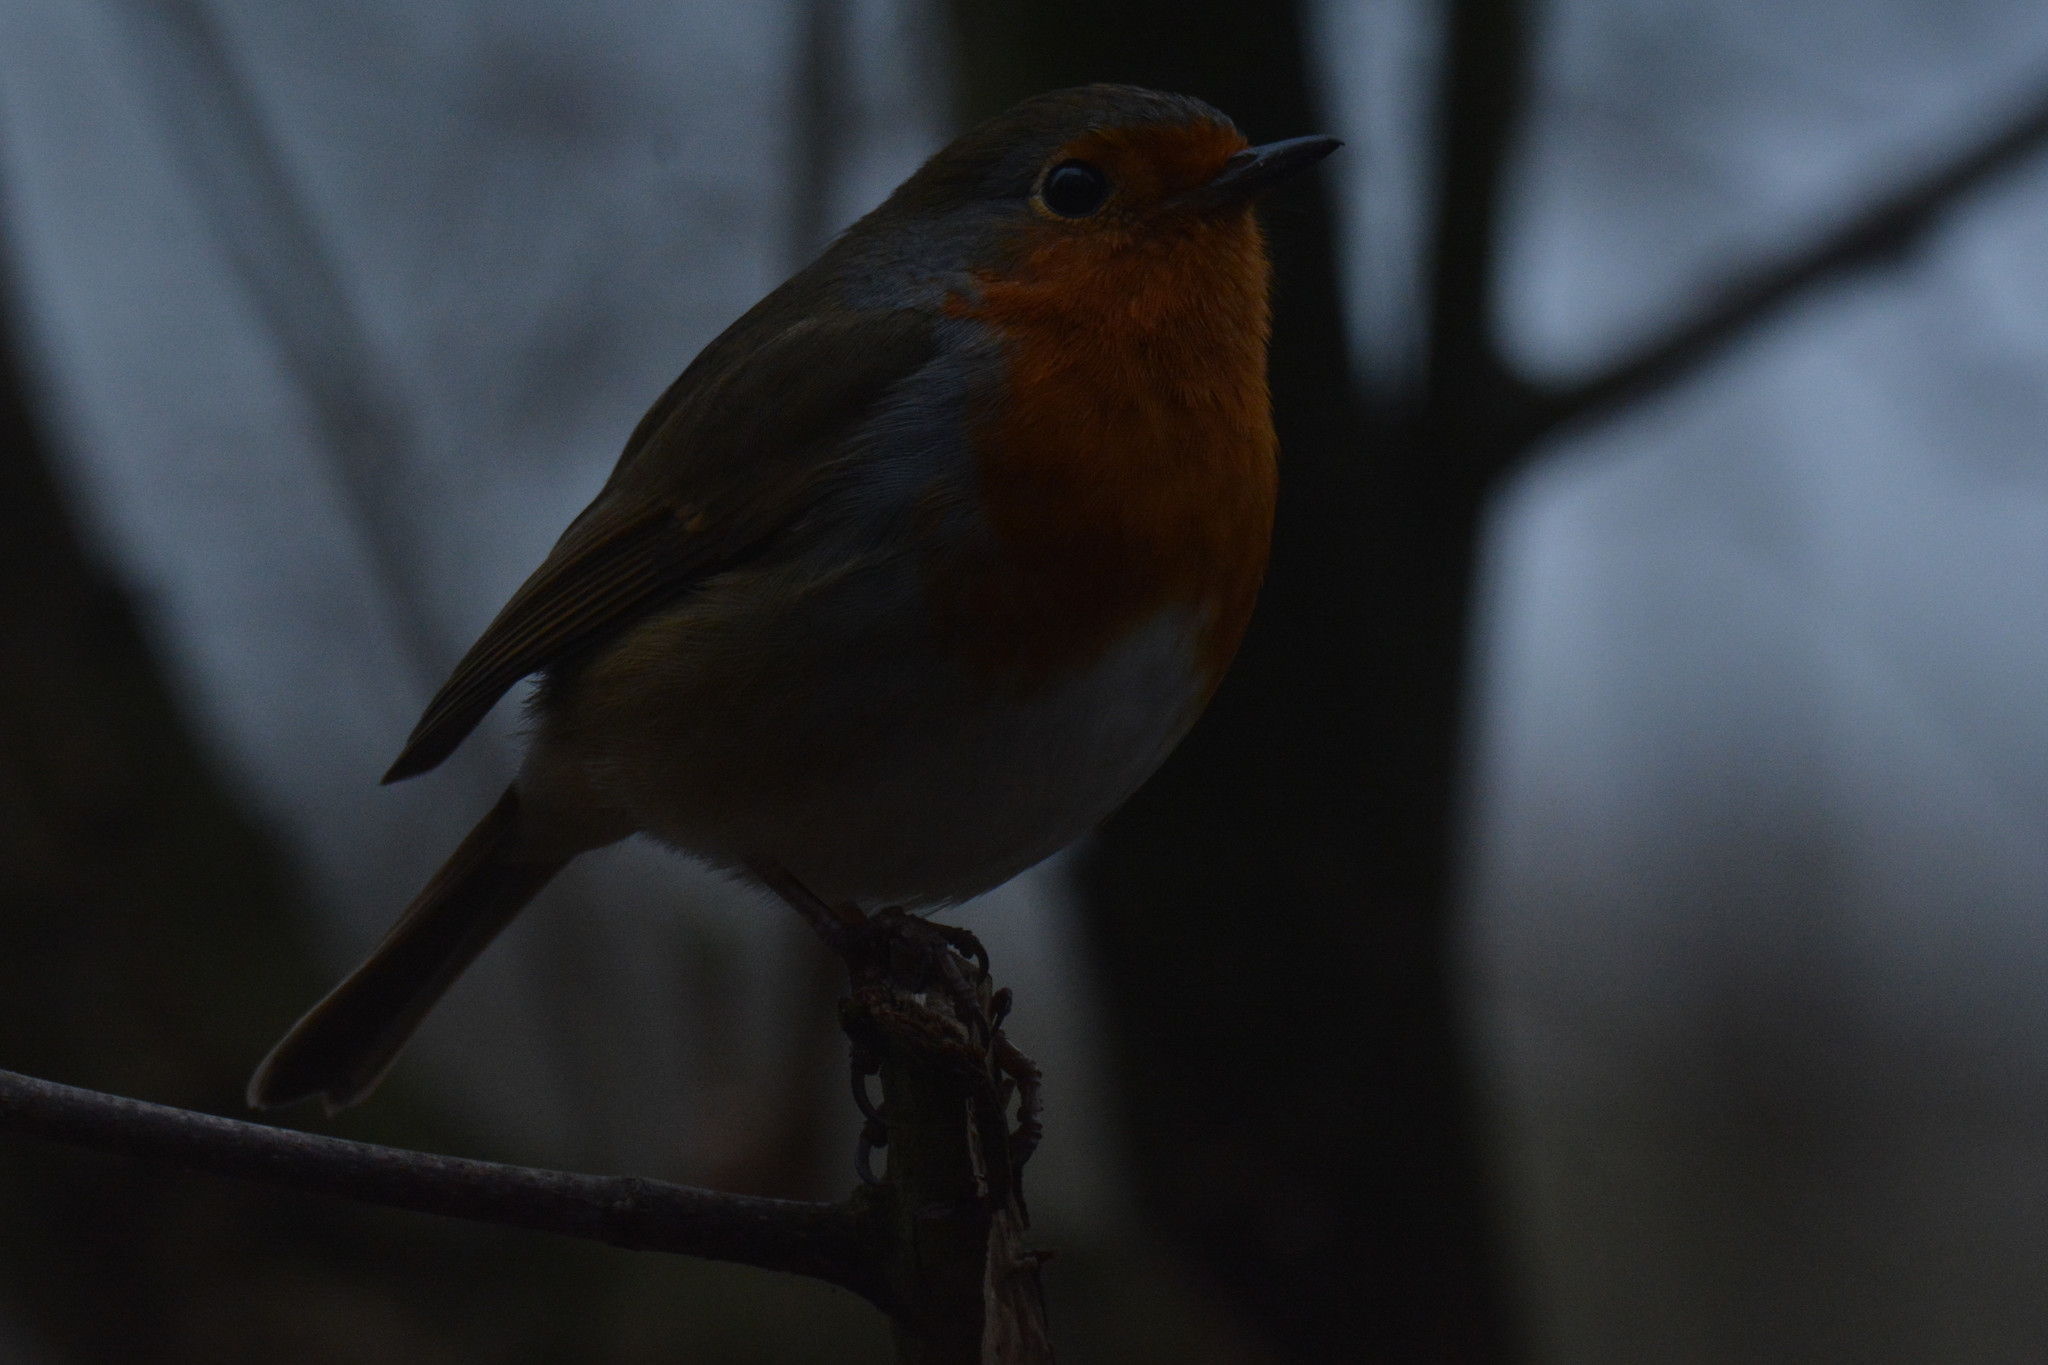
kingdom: Animalia
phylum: Chordata
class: Aves
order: Passeriformes
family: Muscicapidae
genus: Erithacus
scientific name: Erithacus rubecula
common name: European robin
